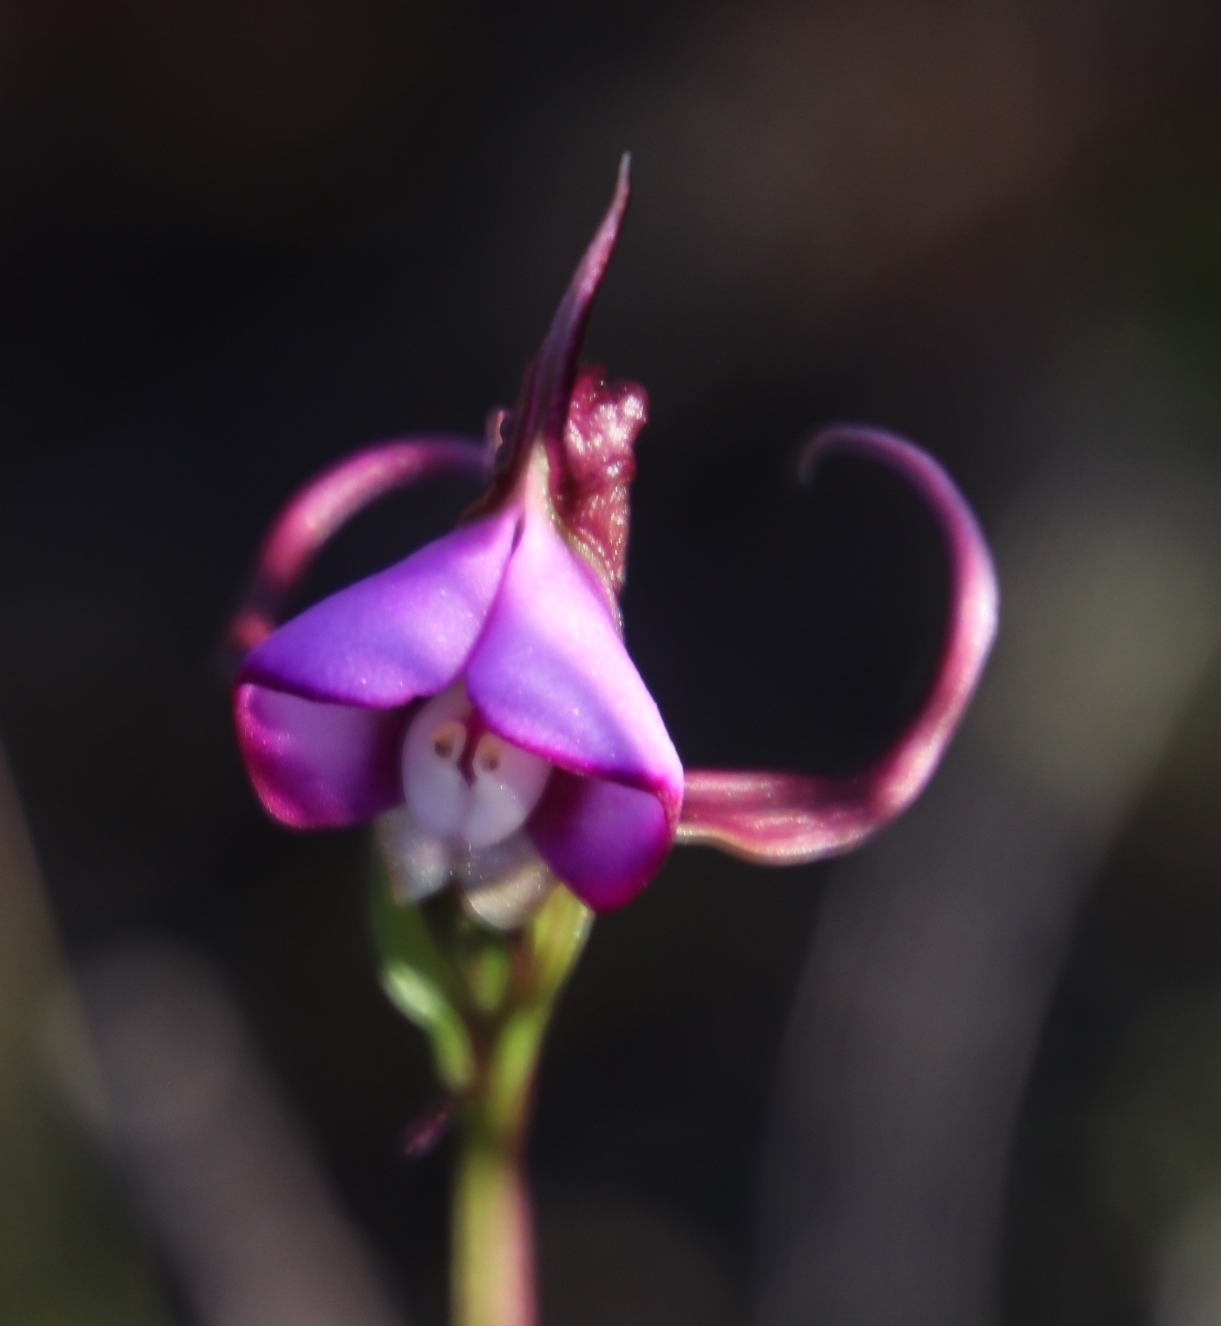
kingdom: Plantae
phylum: Tracheophyta
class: Liliopsida
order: Asparagales
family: Orchidaceae
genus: Disperis
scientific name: Disperis capensis
